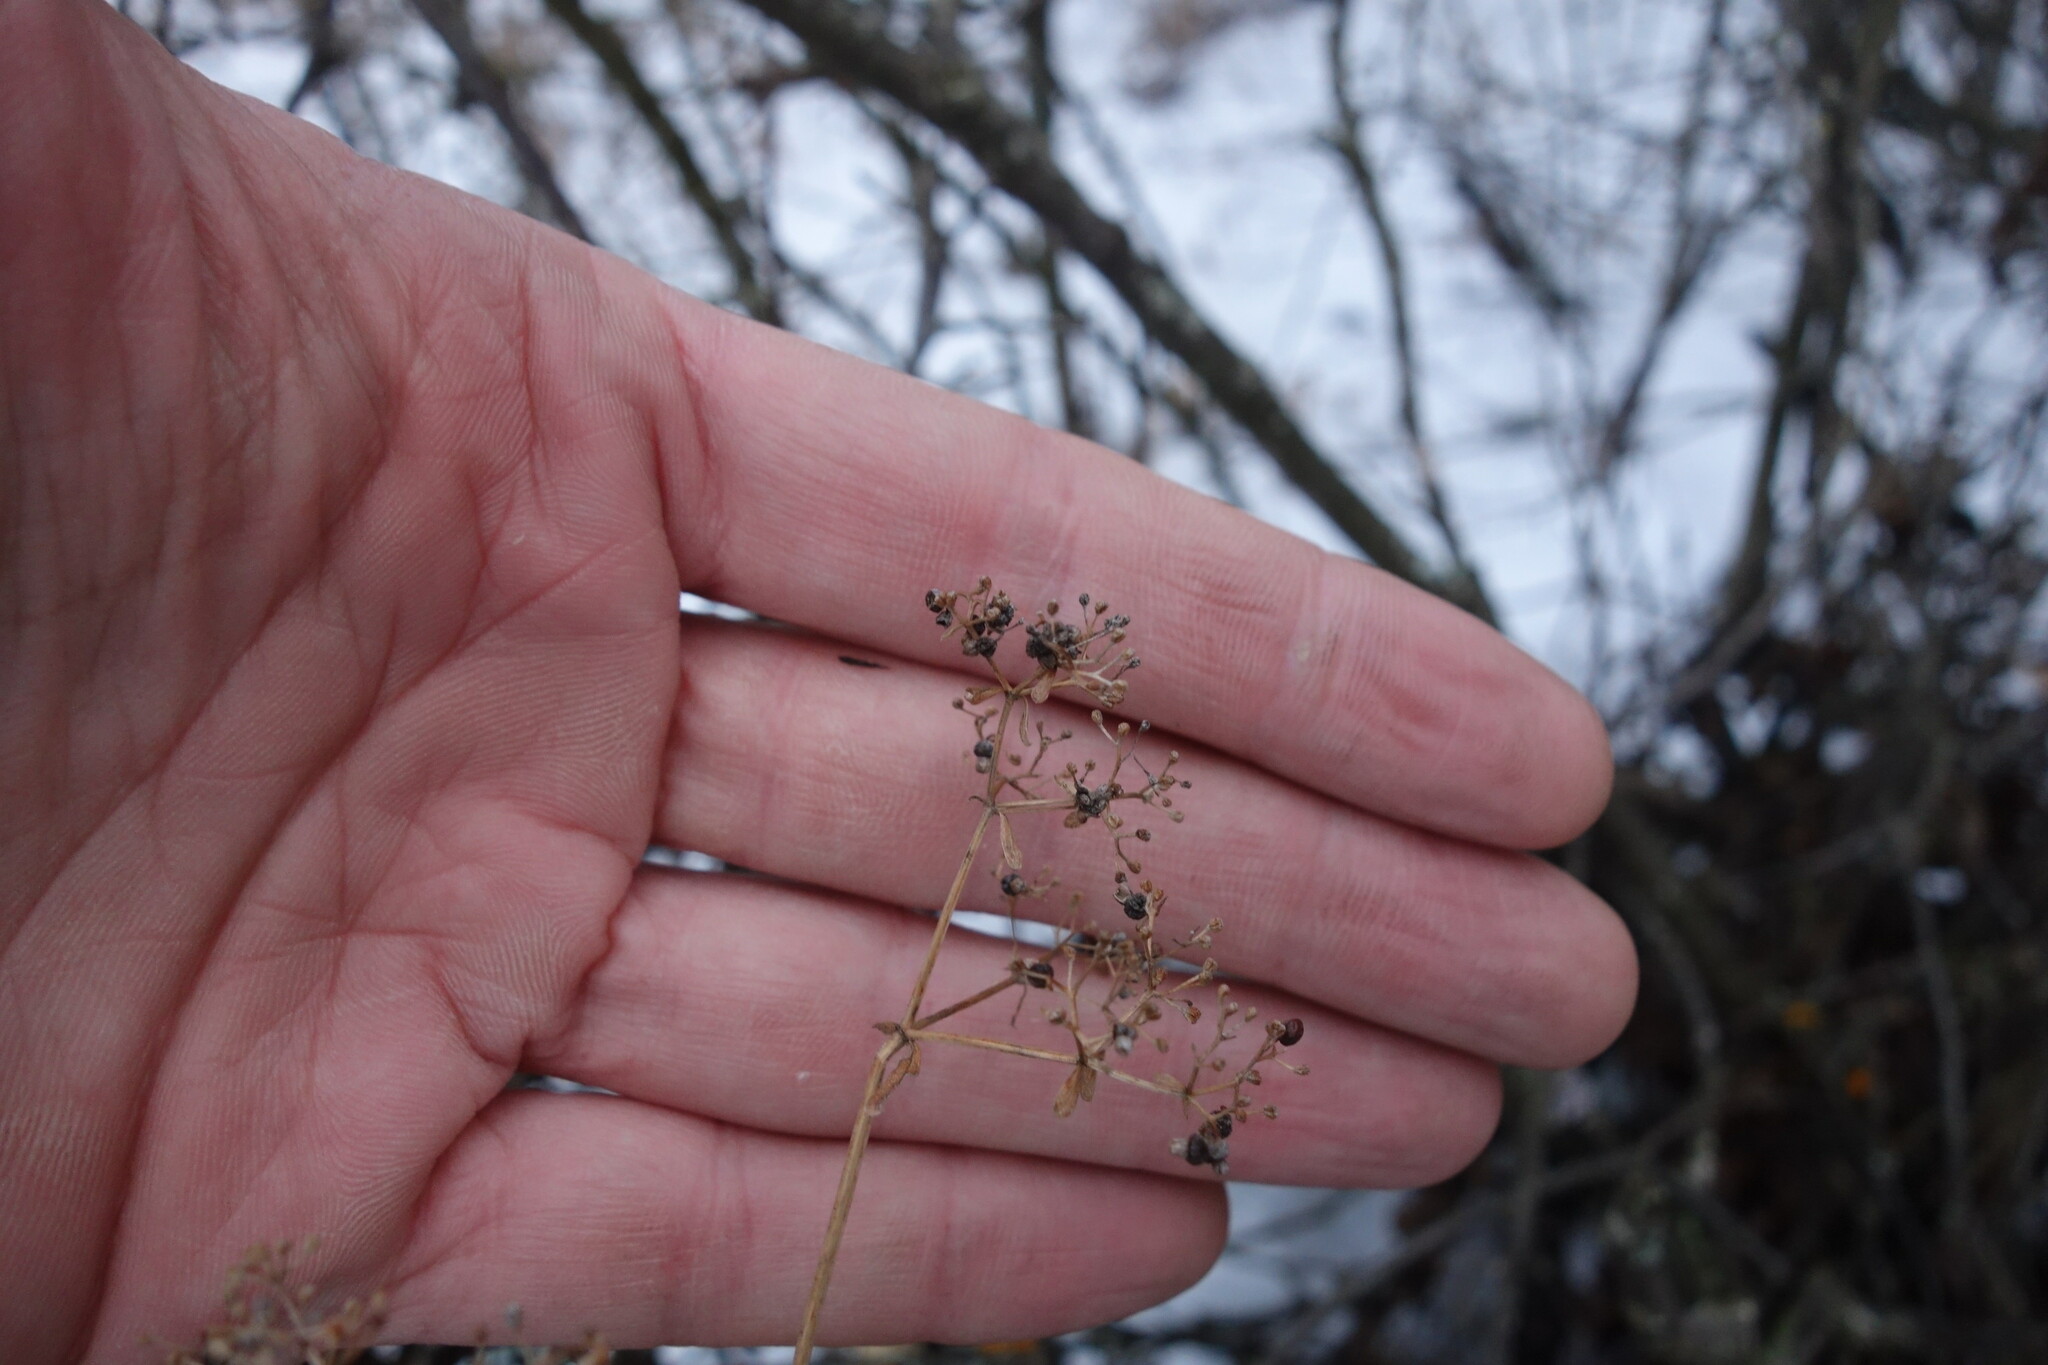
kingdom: Plantae
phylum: Tracheophyta
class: Magnoliopsida
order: Gentianales
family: Rubiaceae
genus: Galium
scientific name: Galium rubioides
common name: European bedstraw
